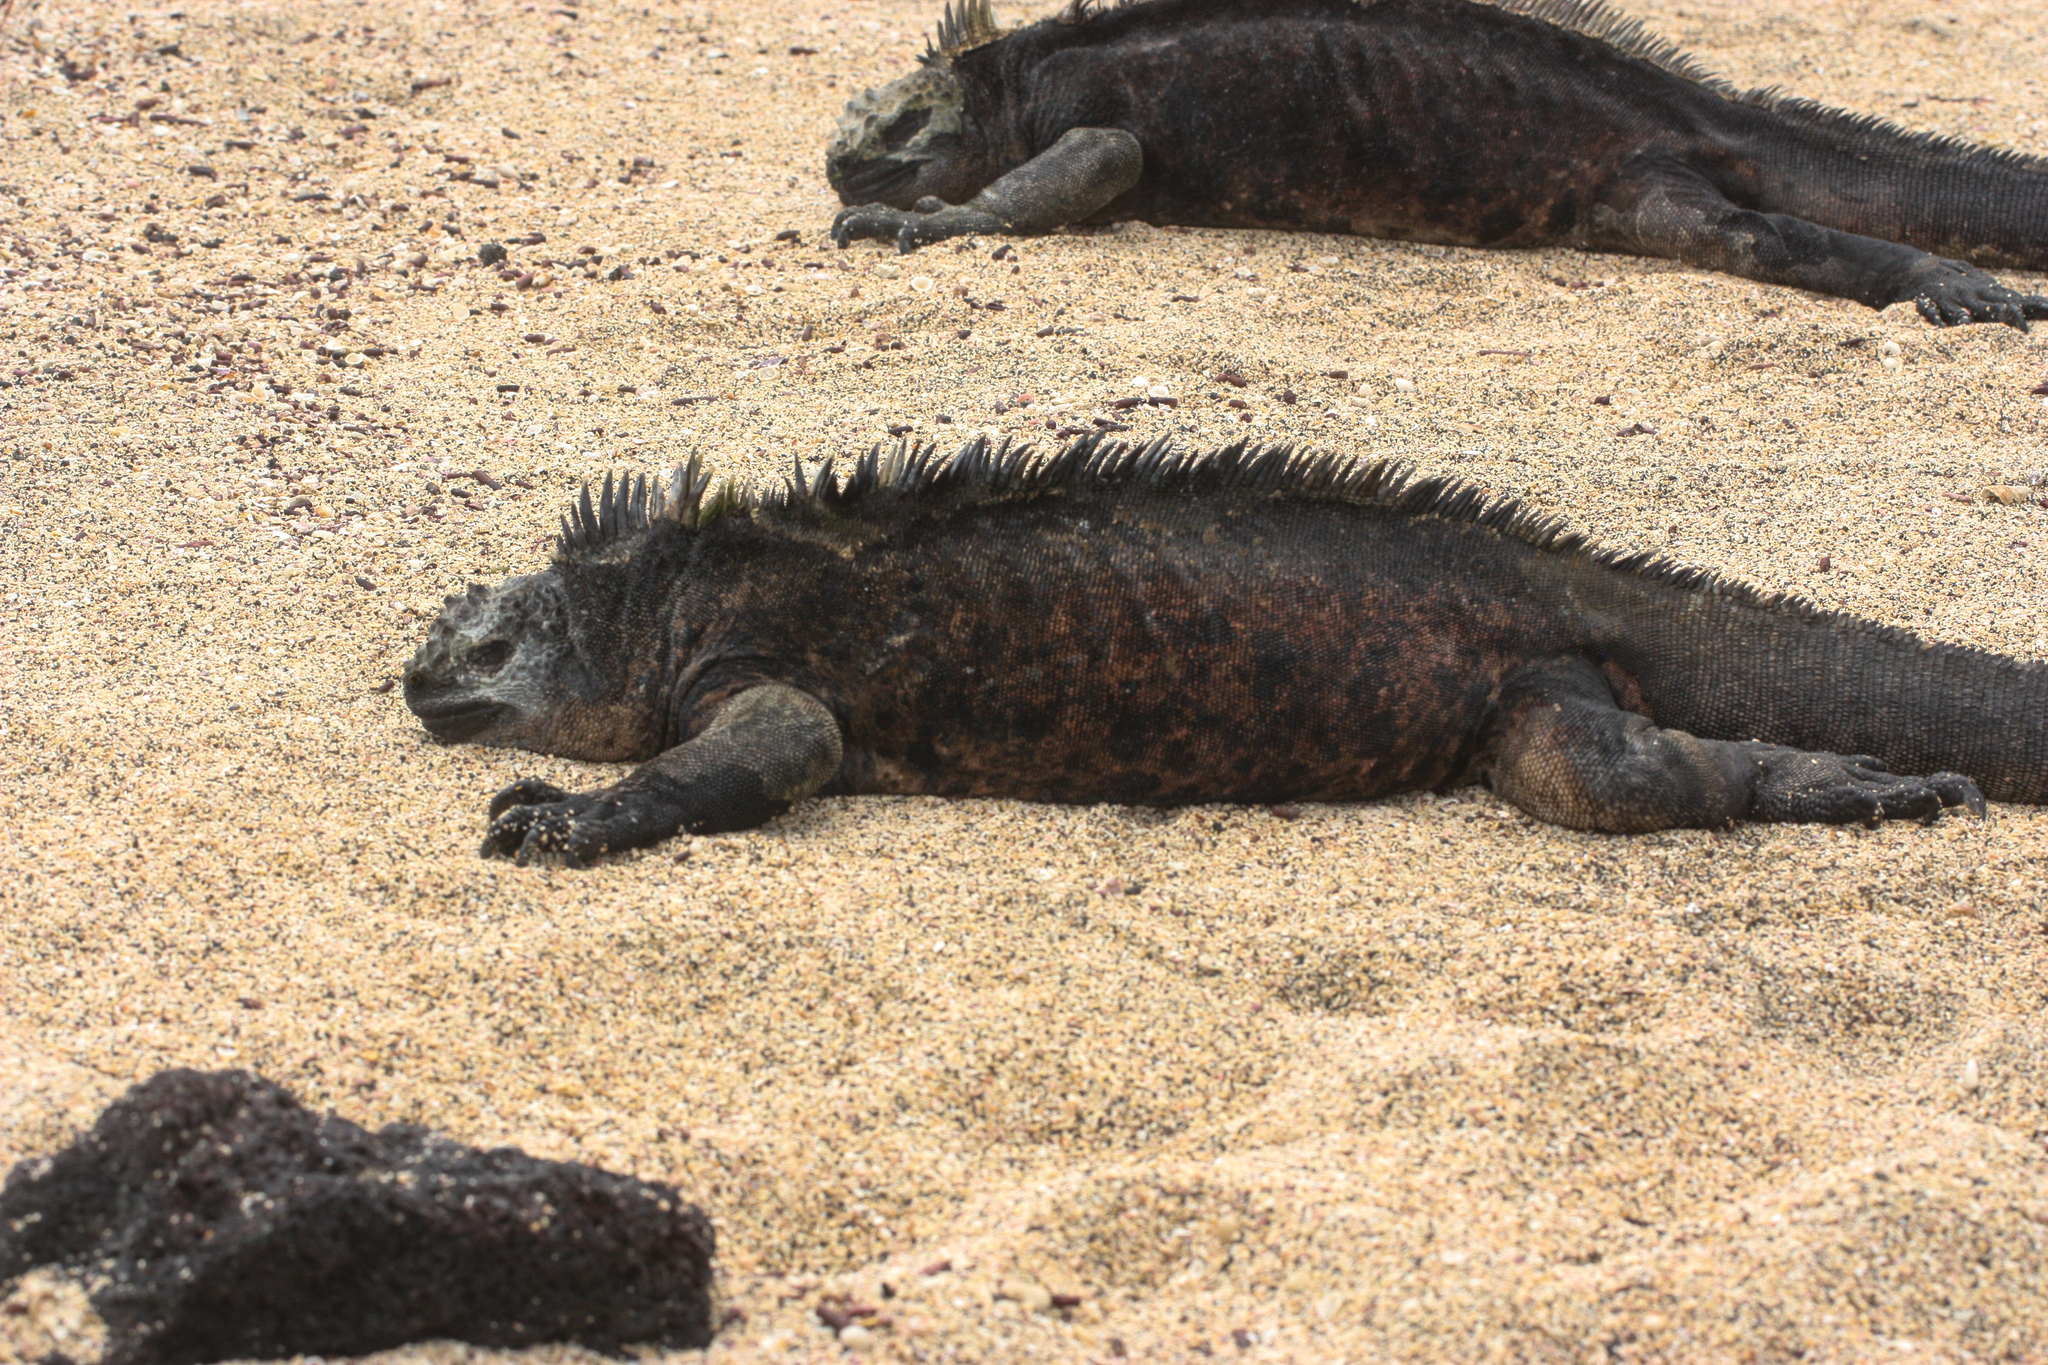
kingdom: Animalia
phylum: Chordata
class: Squamata
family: Iguanidae
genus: Amblyrhynchus
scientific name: Amblyrhynchus cristatus
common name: Marine iguana
